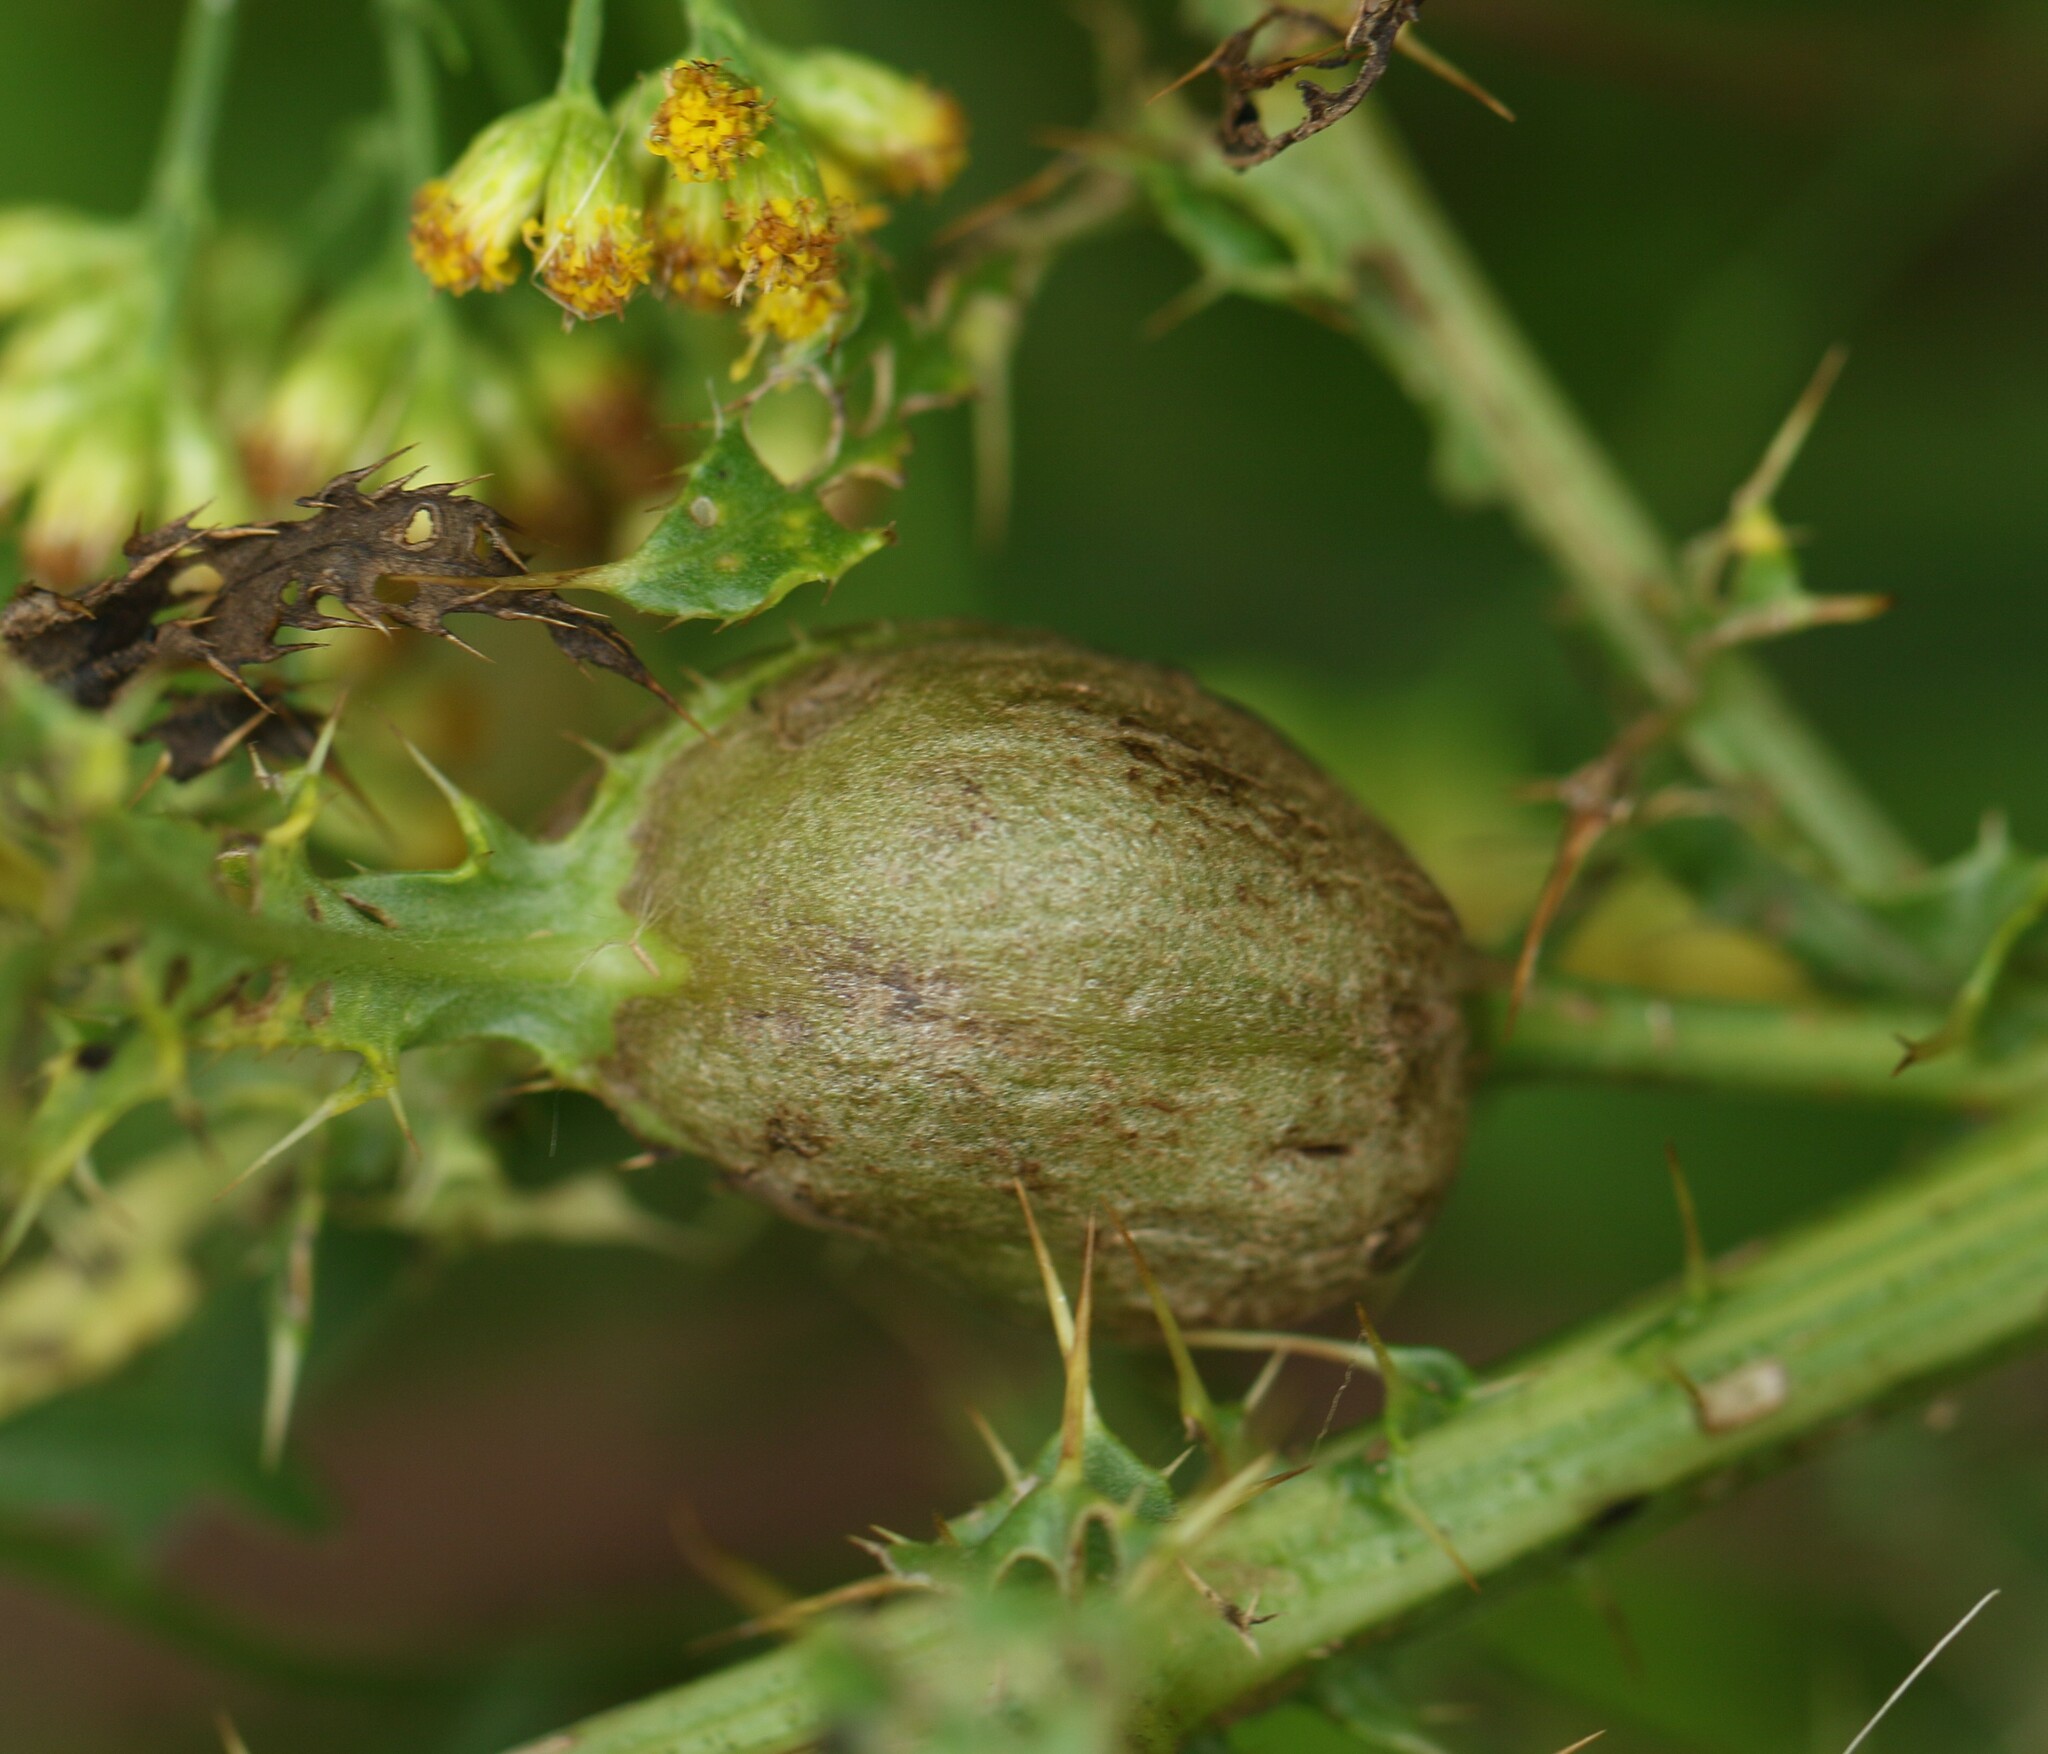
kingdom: Animalia
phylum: Arthropoda
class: Insecta
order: Diptera
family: Tephritidae
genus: Urophora
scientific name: Urophora cardui
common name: Fruit fly
